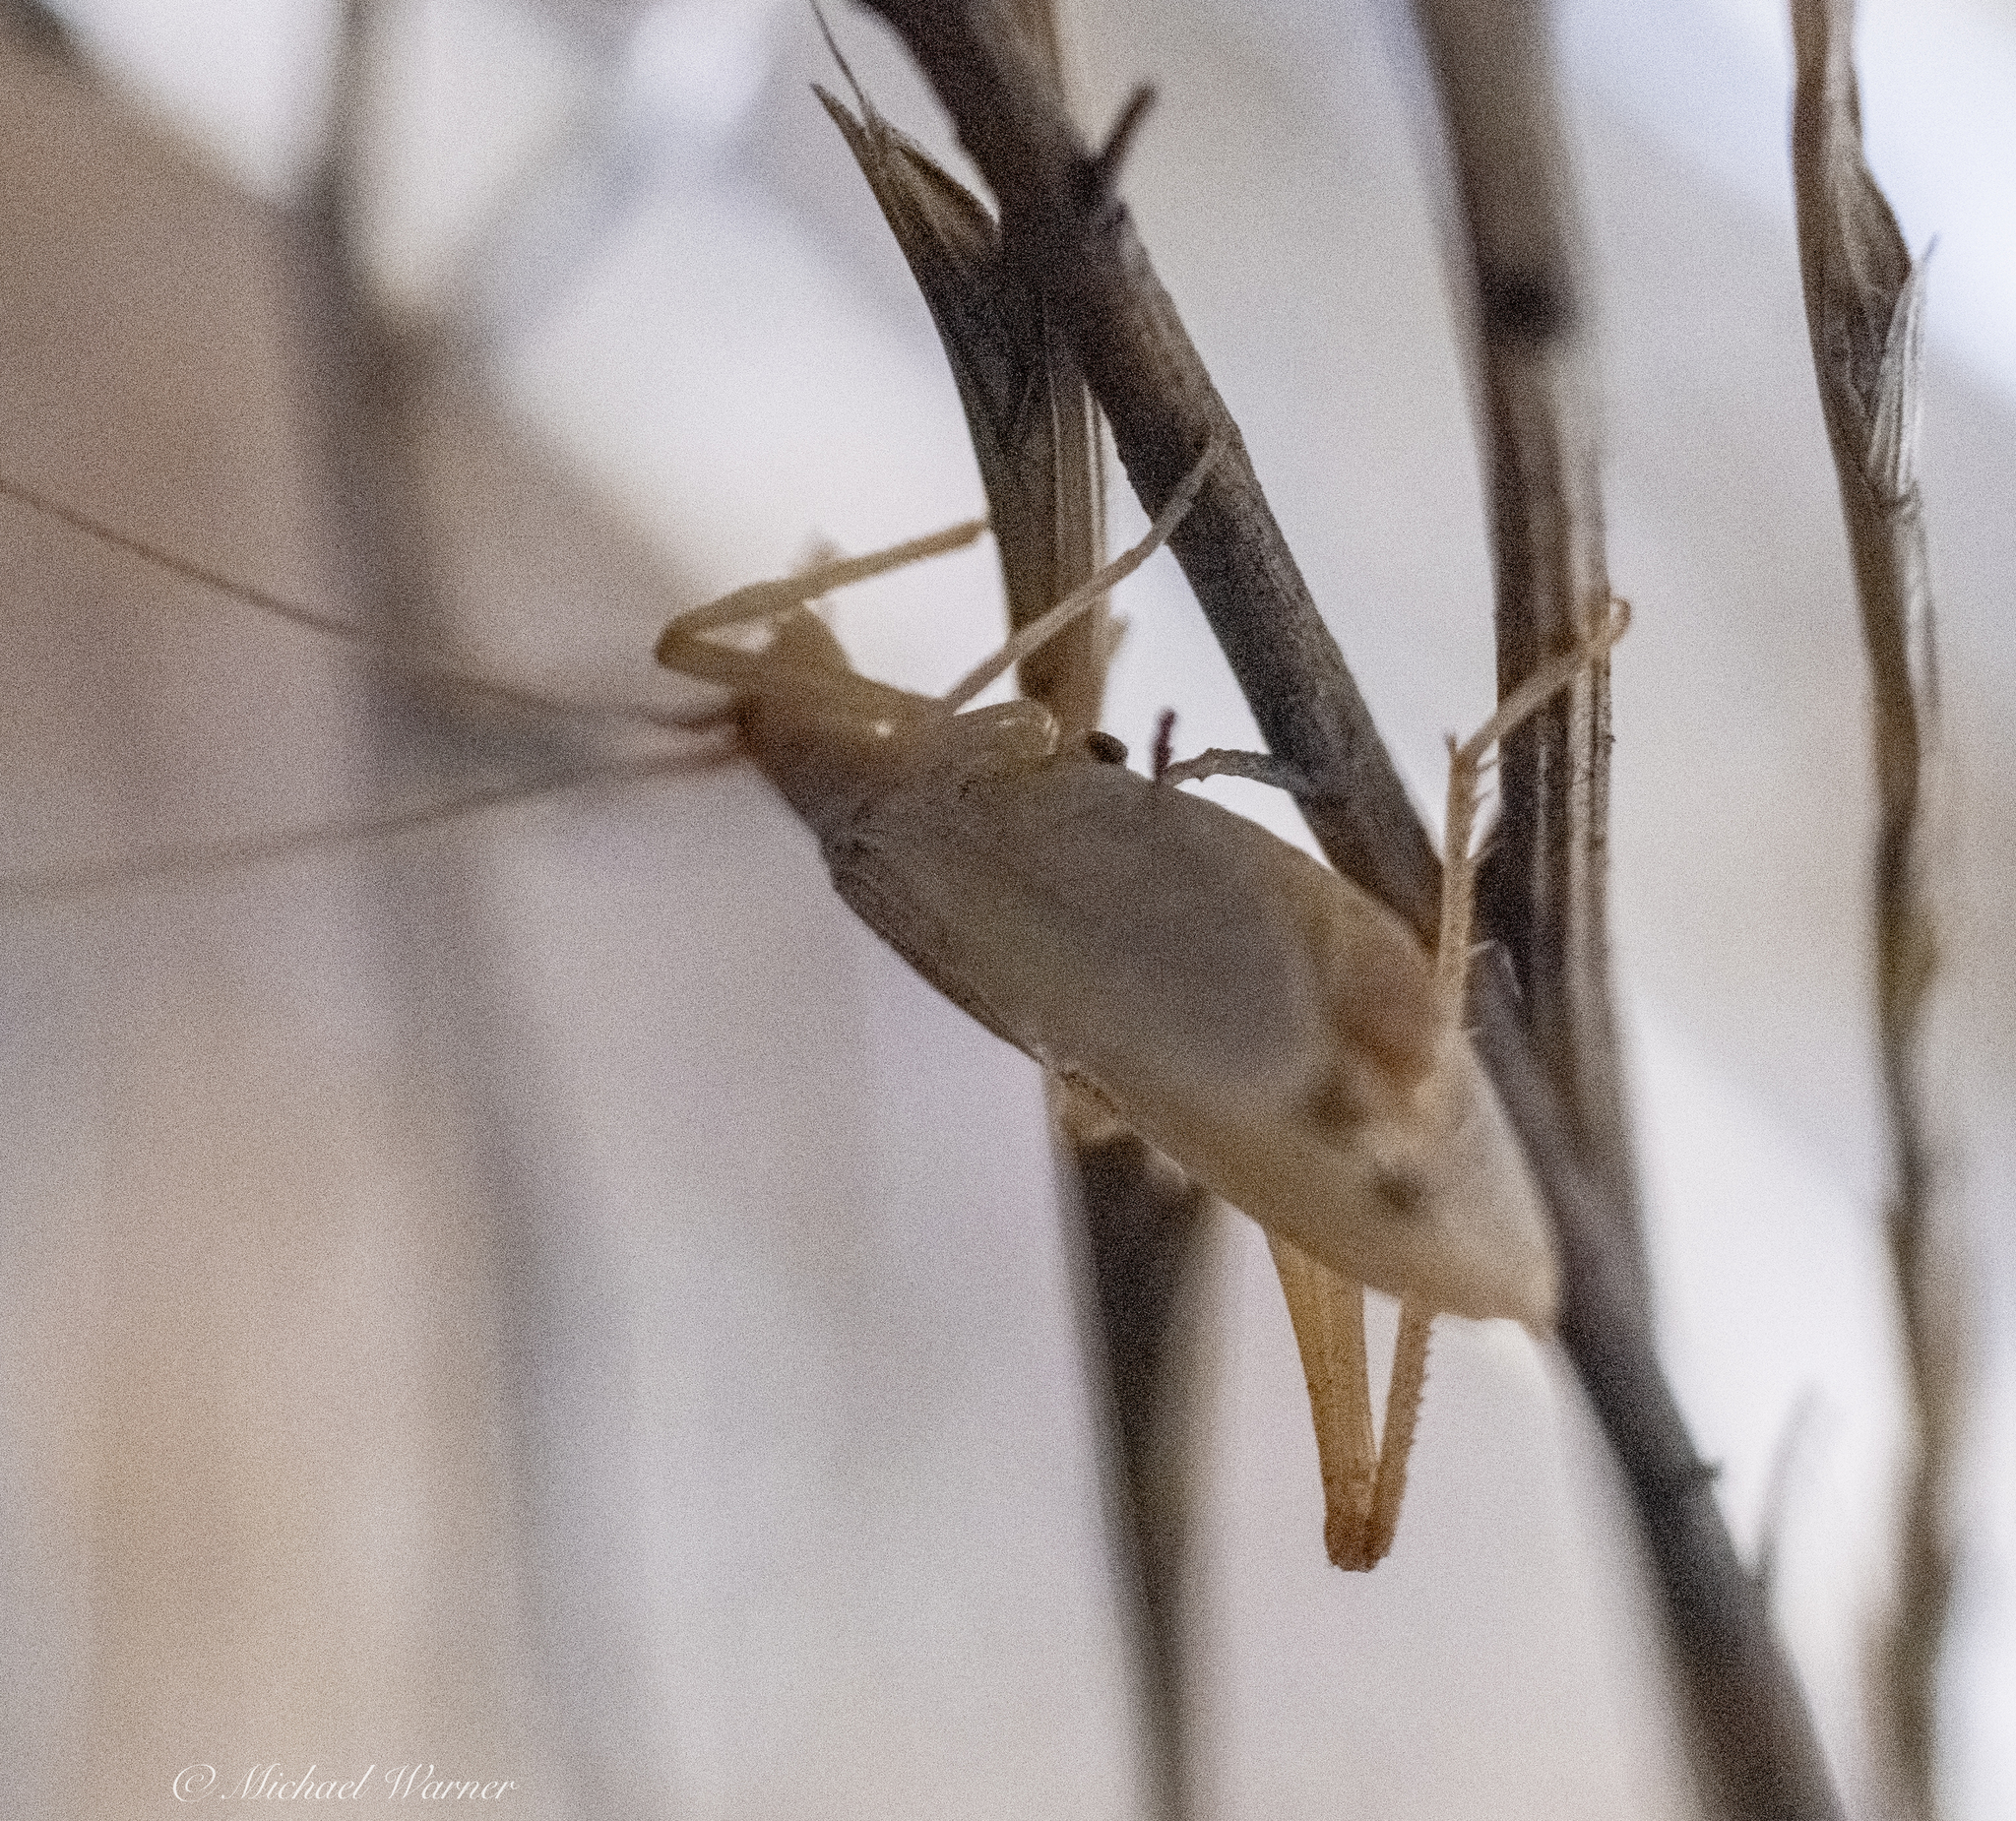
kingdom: Animalia
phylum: Arthropoda
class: Insecta
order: Orthoptera
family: Gryllidae
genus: Oecanthus
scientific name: Oecanthus californicus
